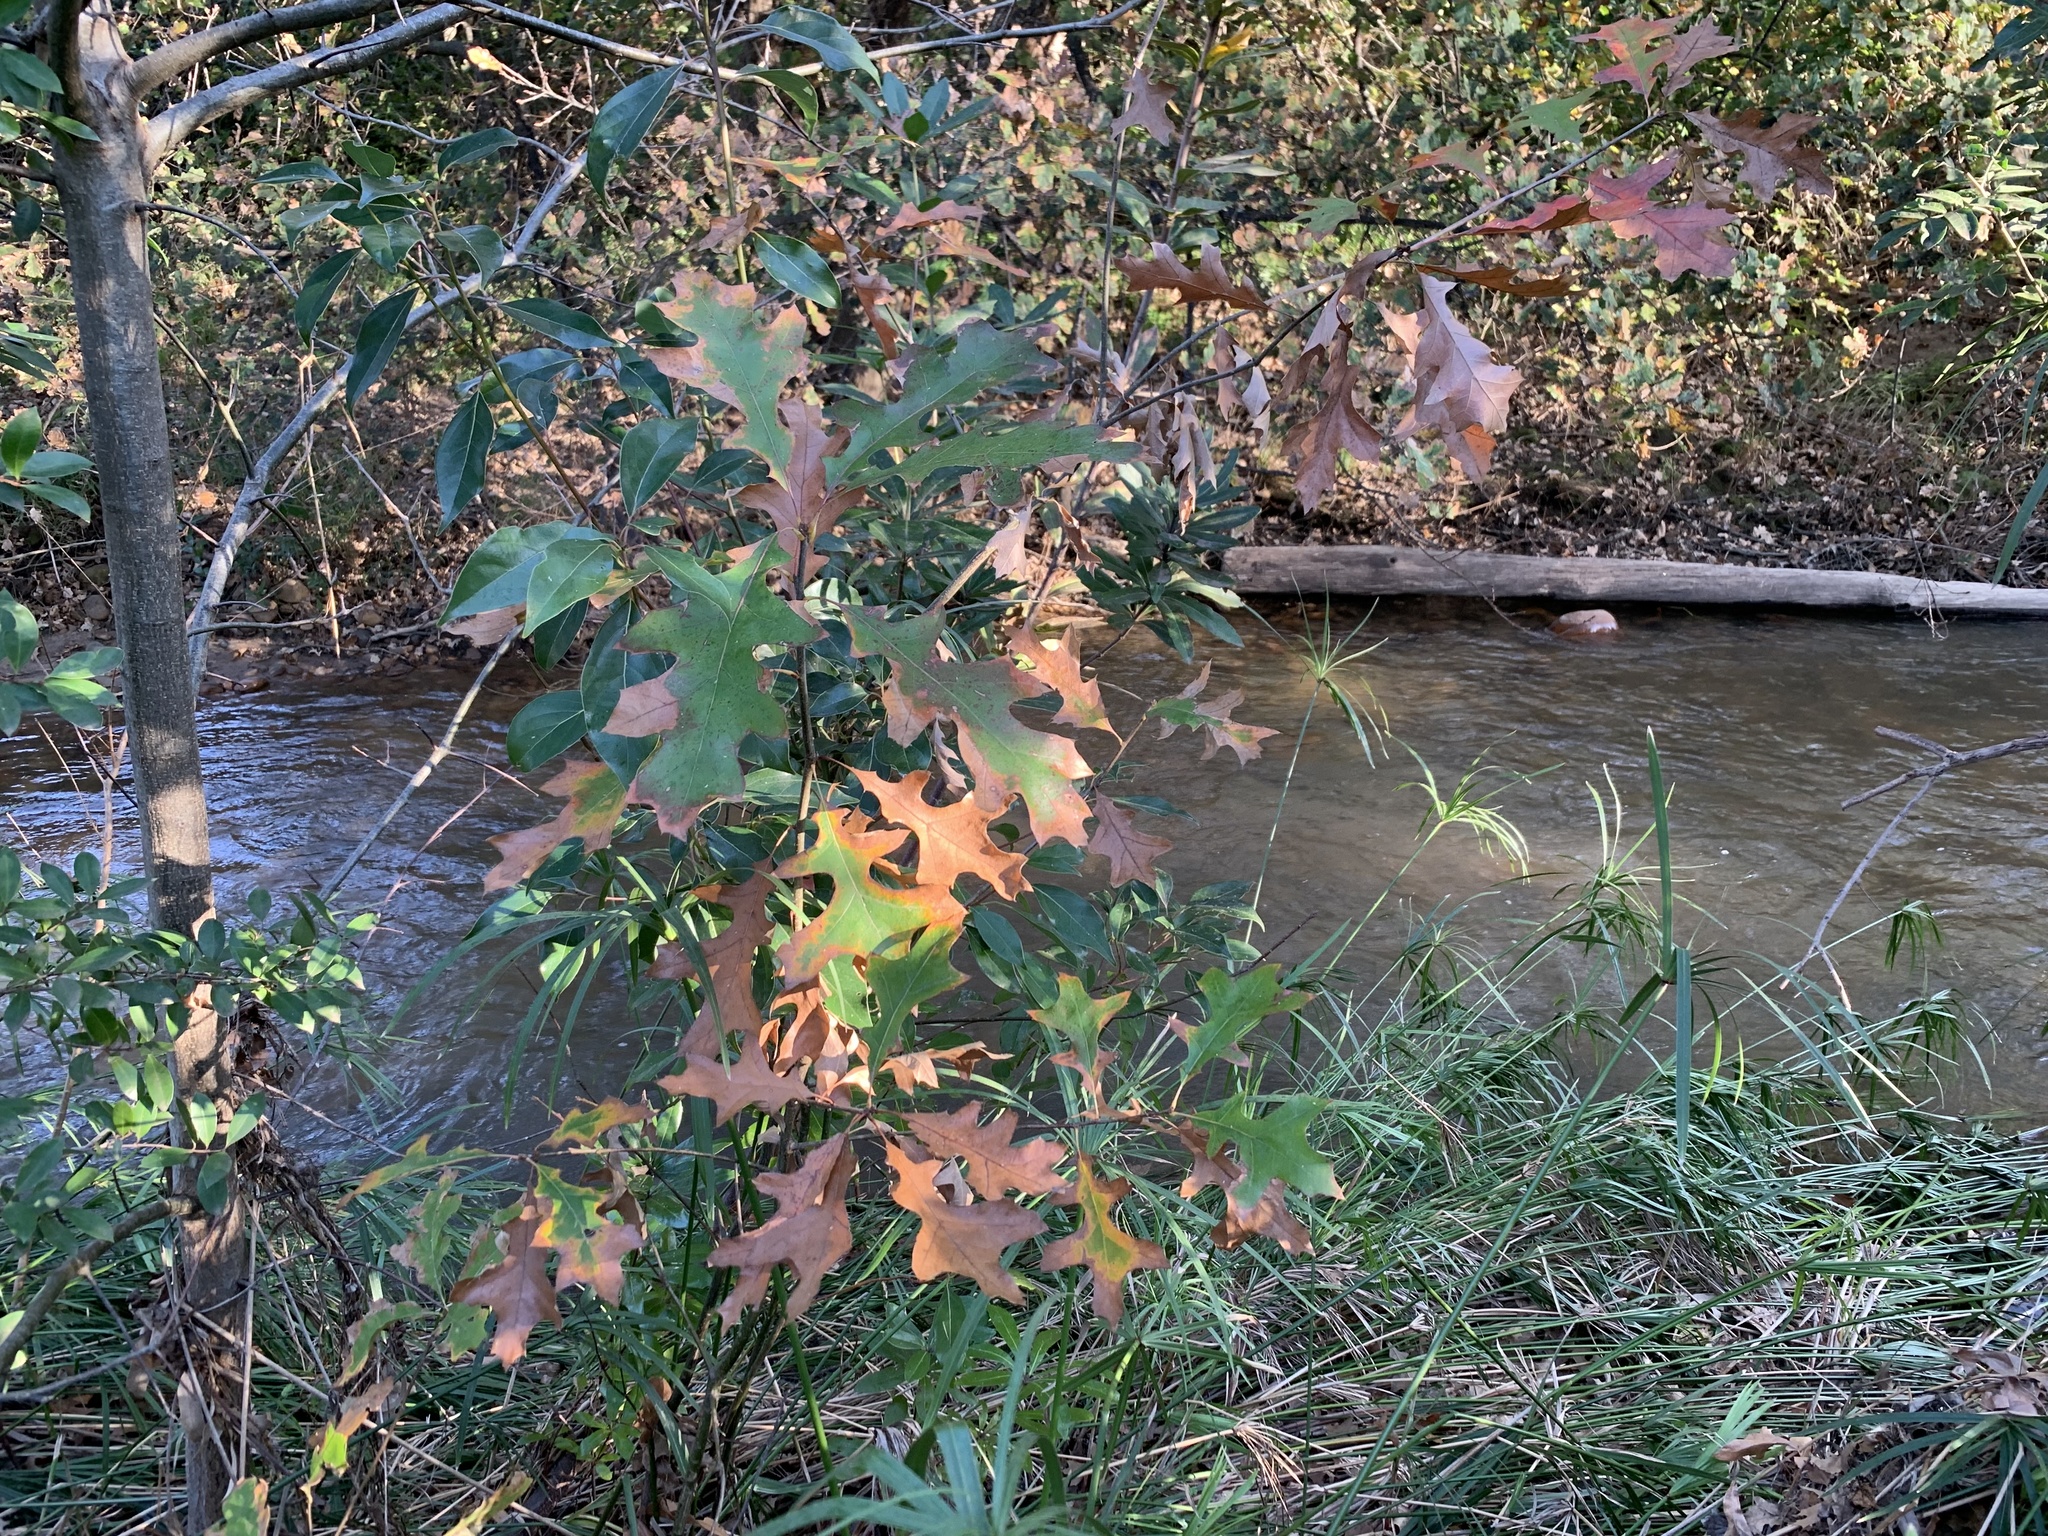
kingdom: Plantae
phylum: Tracheophyta
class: Magnoliopsida
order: Fagales
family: Fagaceae
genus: Quercus
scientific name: Quercus palustris
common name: Pin oak
